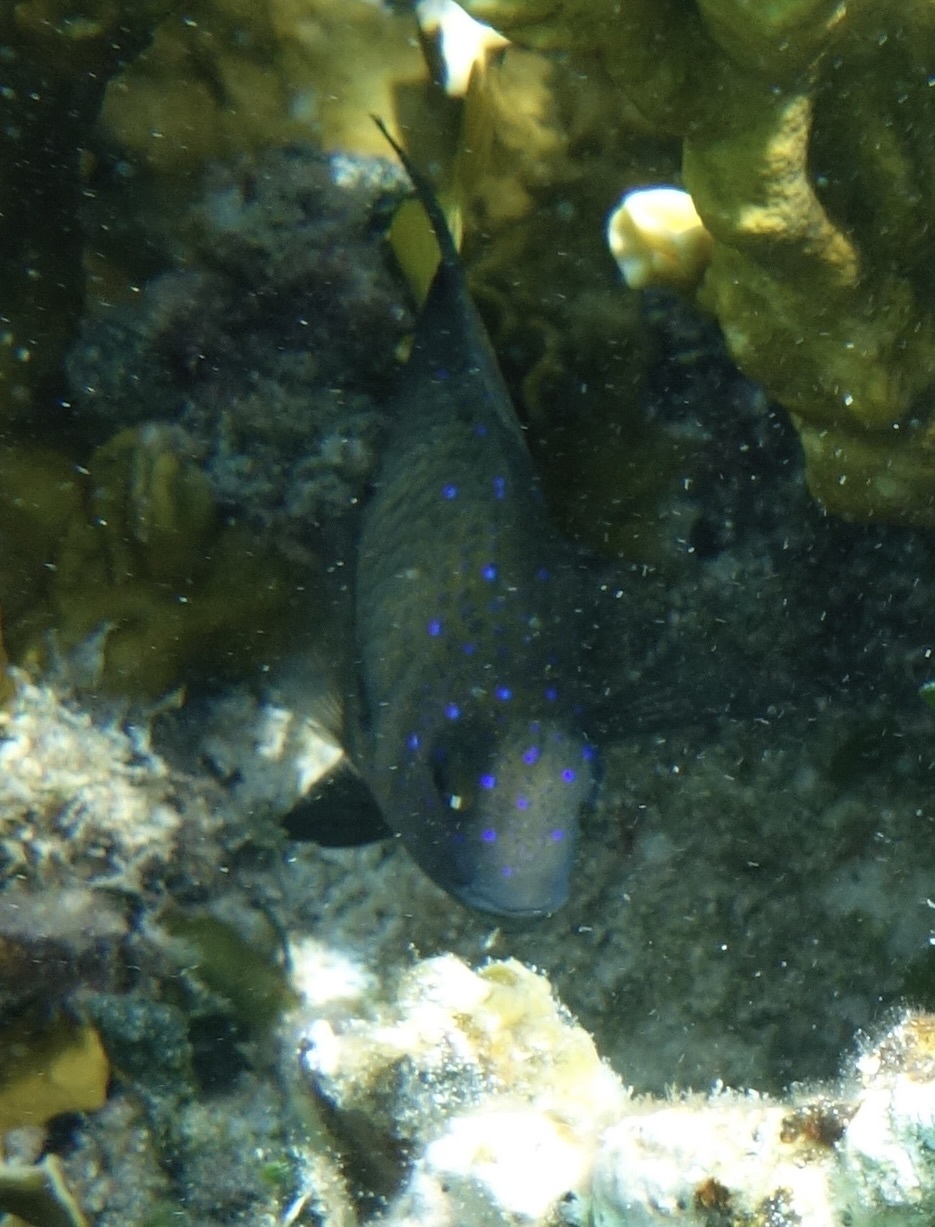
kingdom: Animalia
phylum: Chordata
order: Perciformes
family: Pomacentridae
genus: Microspathodon
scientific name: Microspathodon chrysurus
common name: Yellowtail damselfish
